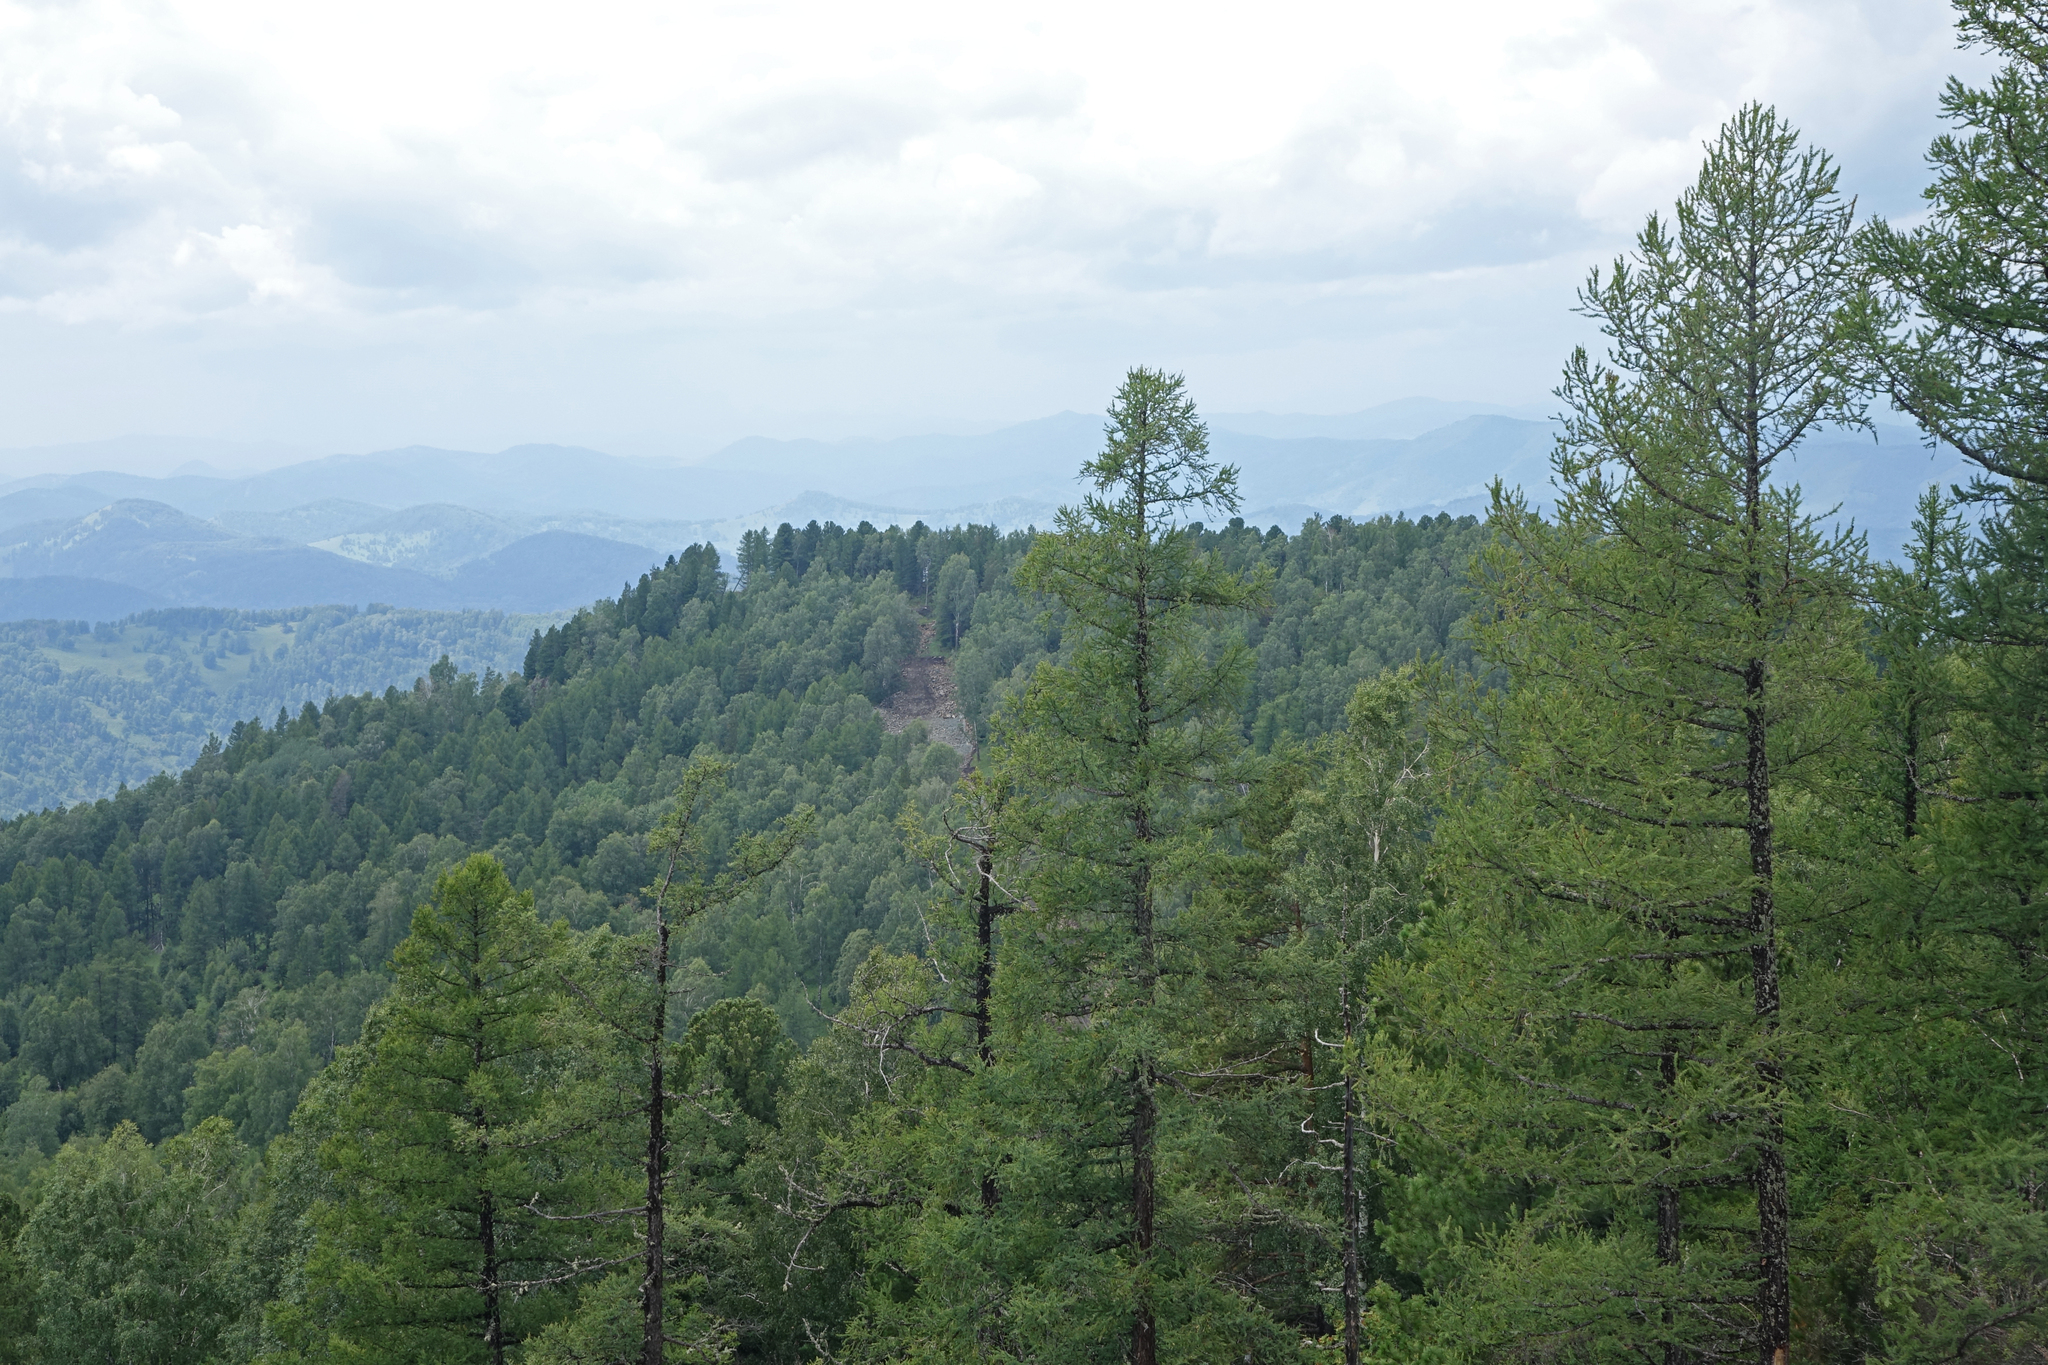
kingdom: Plantae
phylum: Tracheophyta
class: Pinopsida
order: Pinales
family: Pinaceae
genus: Larix
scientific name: Larix sibirica
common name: Siberian larch
